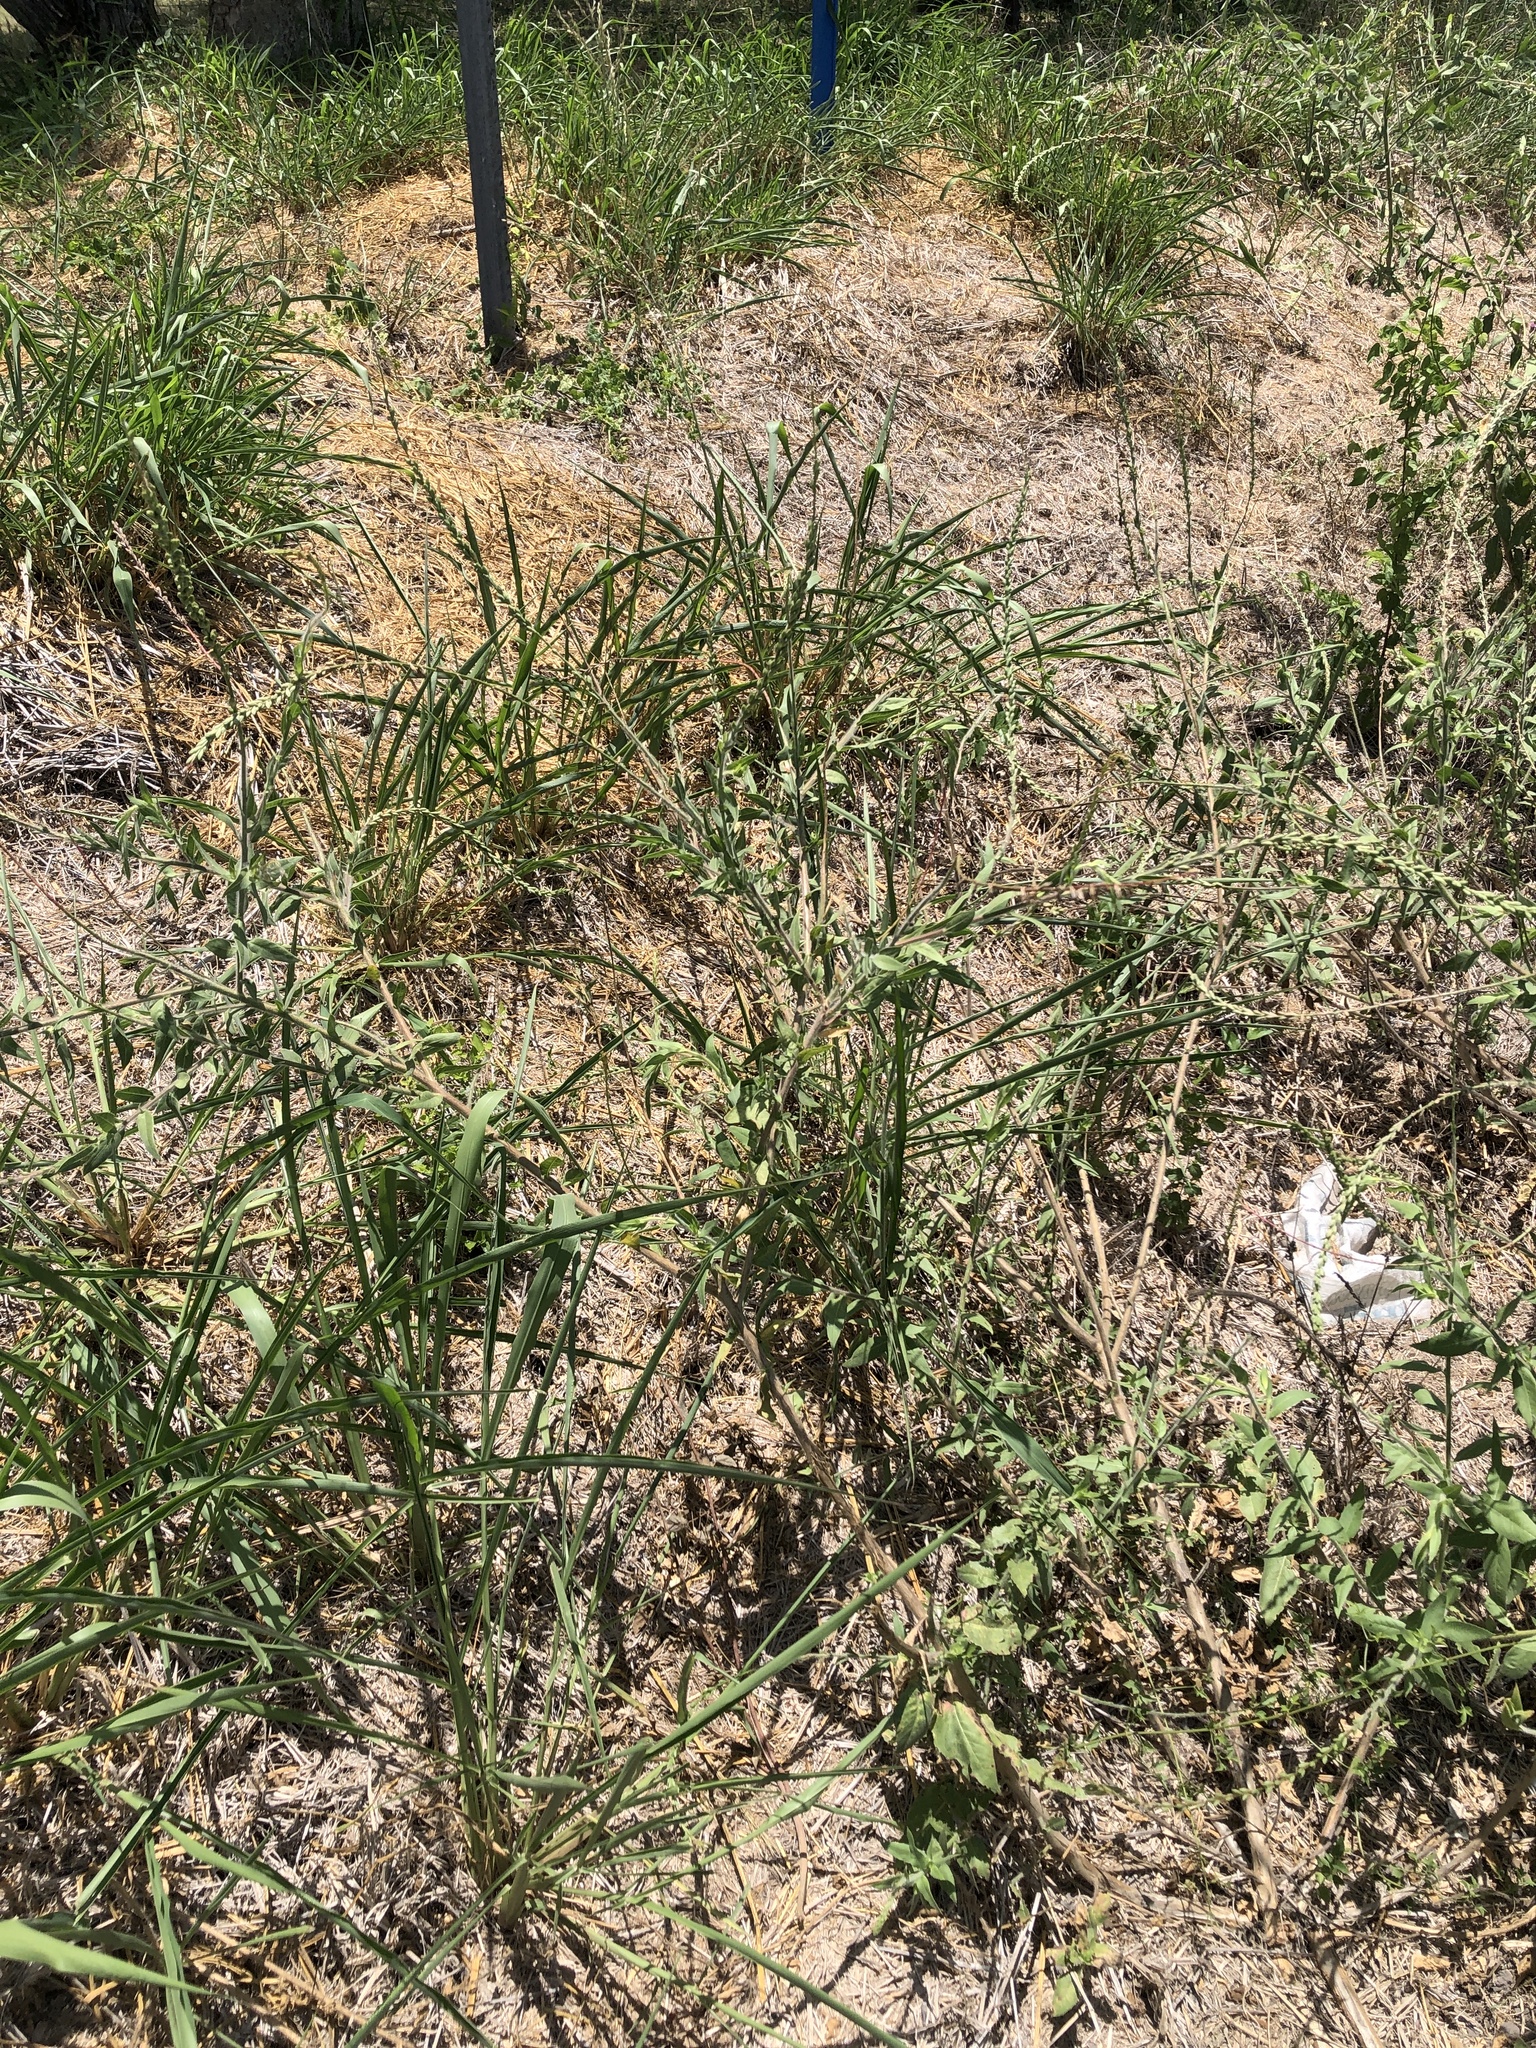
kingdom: Plantae
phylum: Tracheophyta
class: Magnoliopsida
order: Myrtales
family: Onagraceae
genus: Oenothera
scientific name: Oenothera curtiflora
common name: Velvetweed
